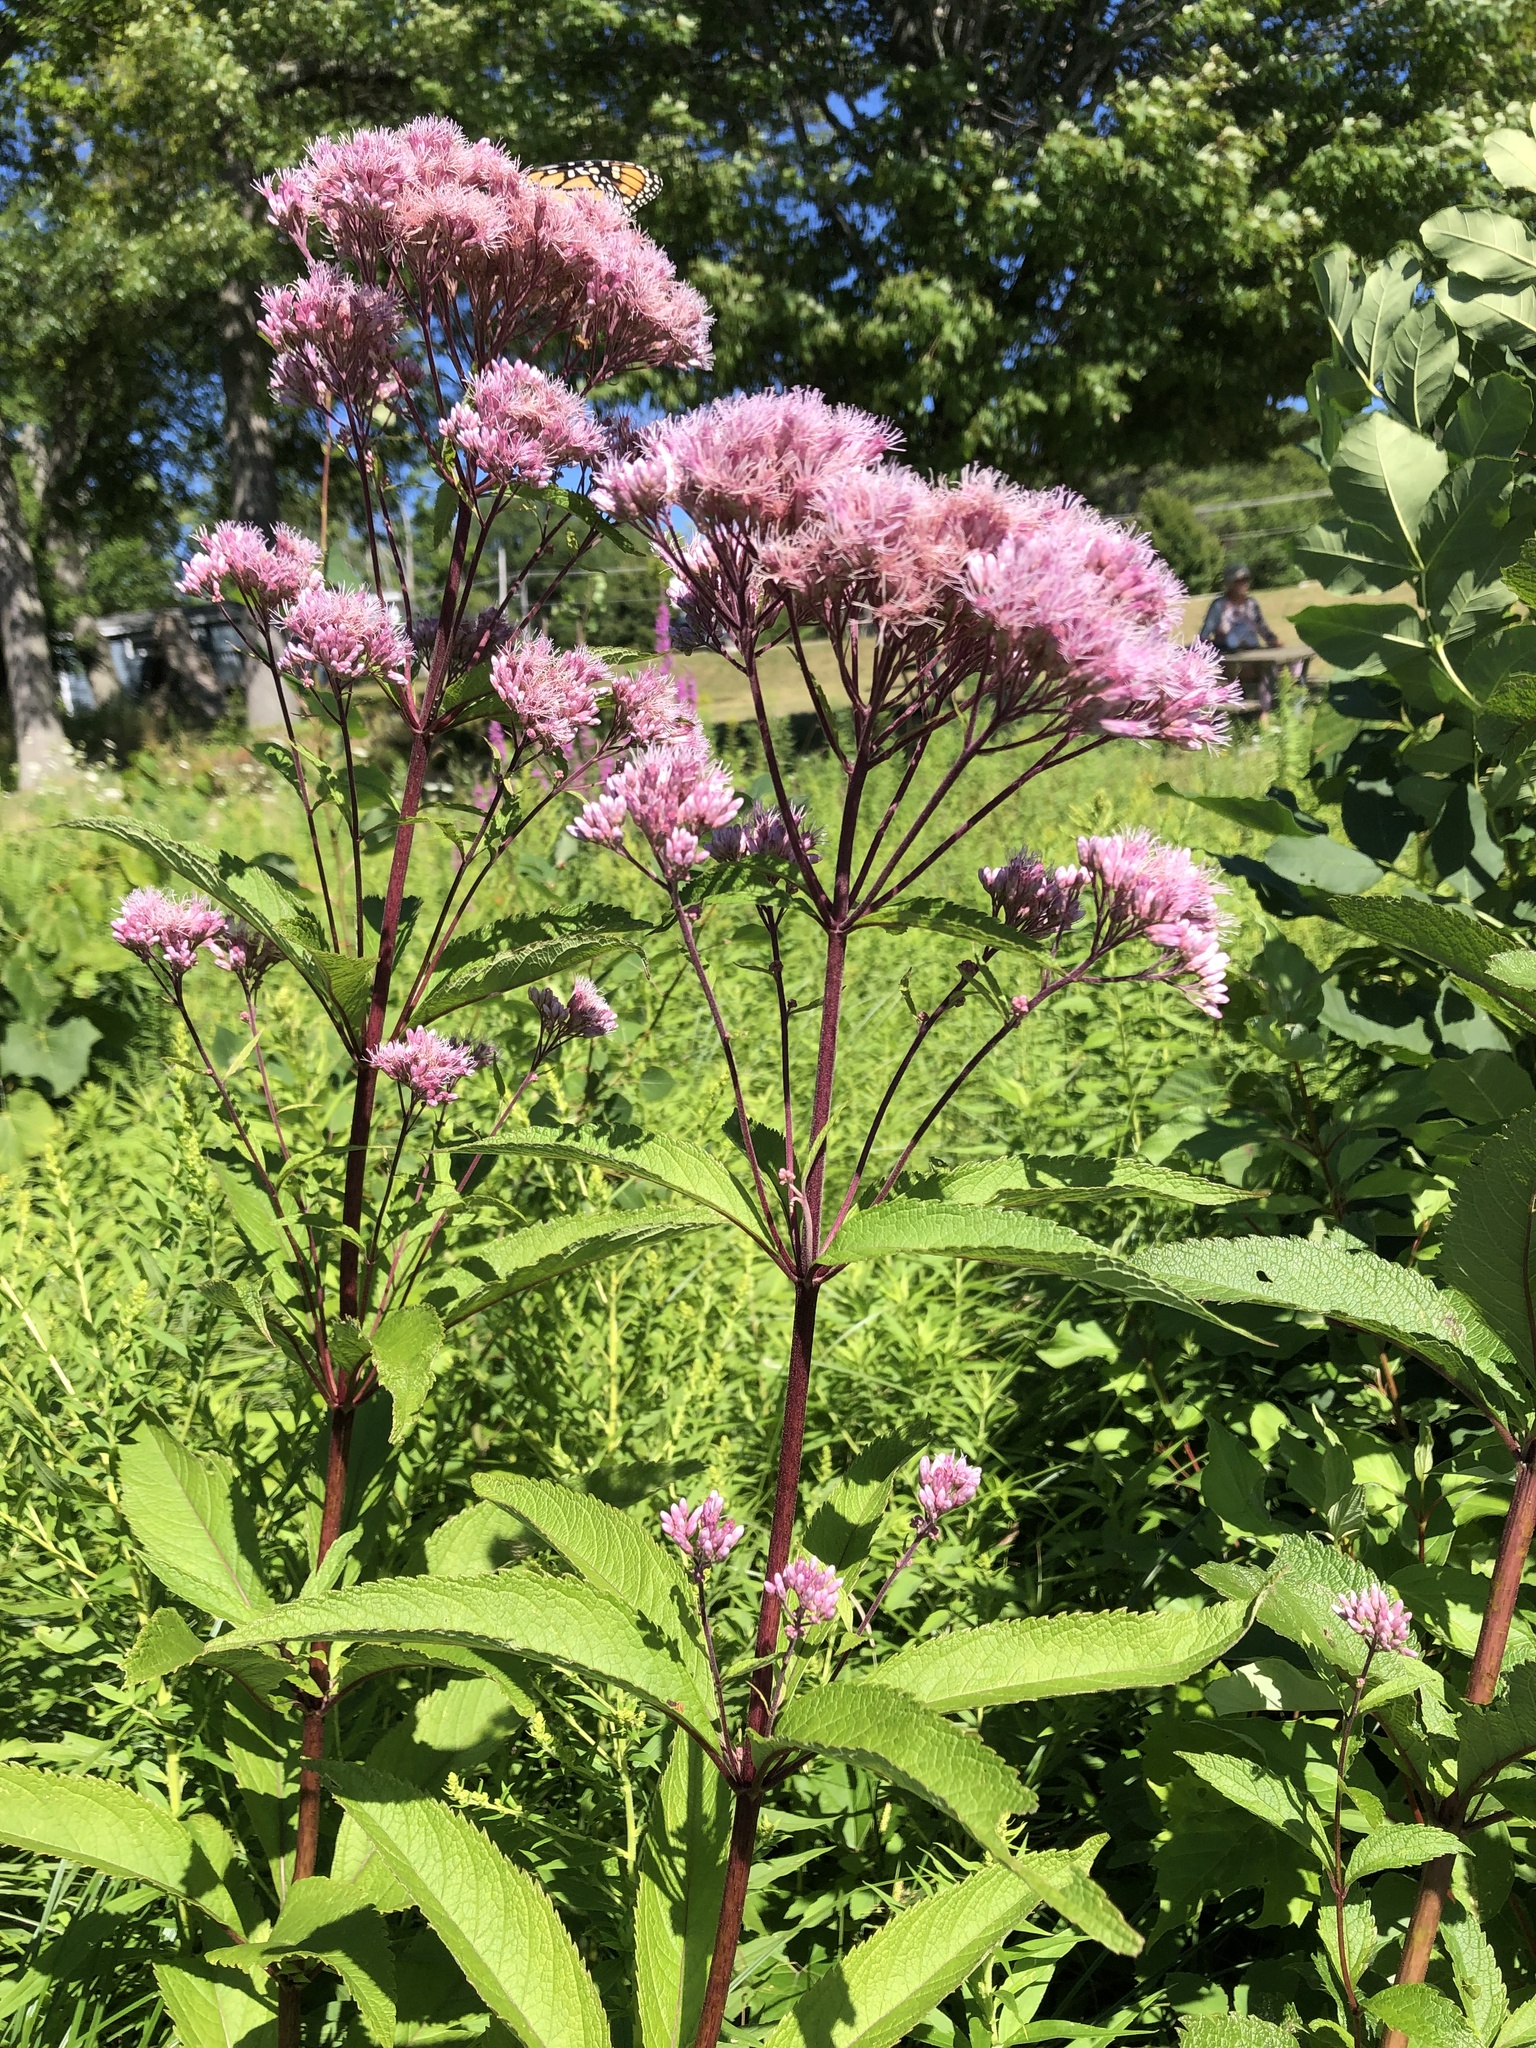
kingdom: Plantae
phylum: Tracheophyta
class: Magnoliopsida
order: Asterales
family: Asteraceae
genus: Eutrochium
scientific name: Eutrochium maculatum
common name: Spotted joe pye weed
